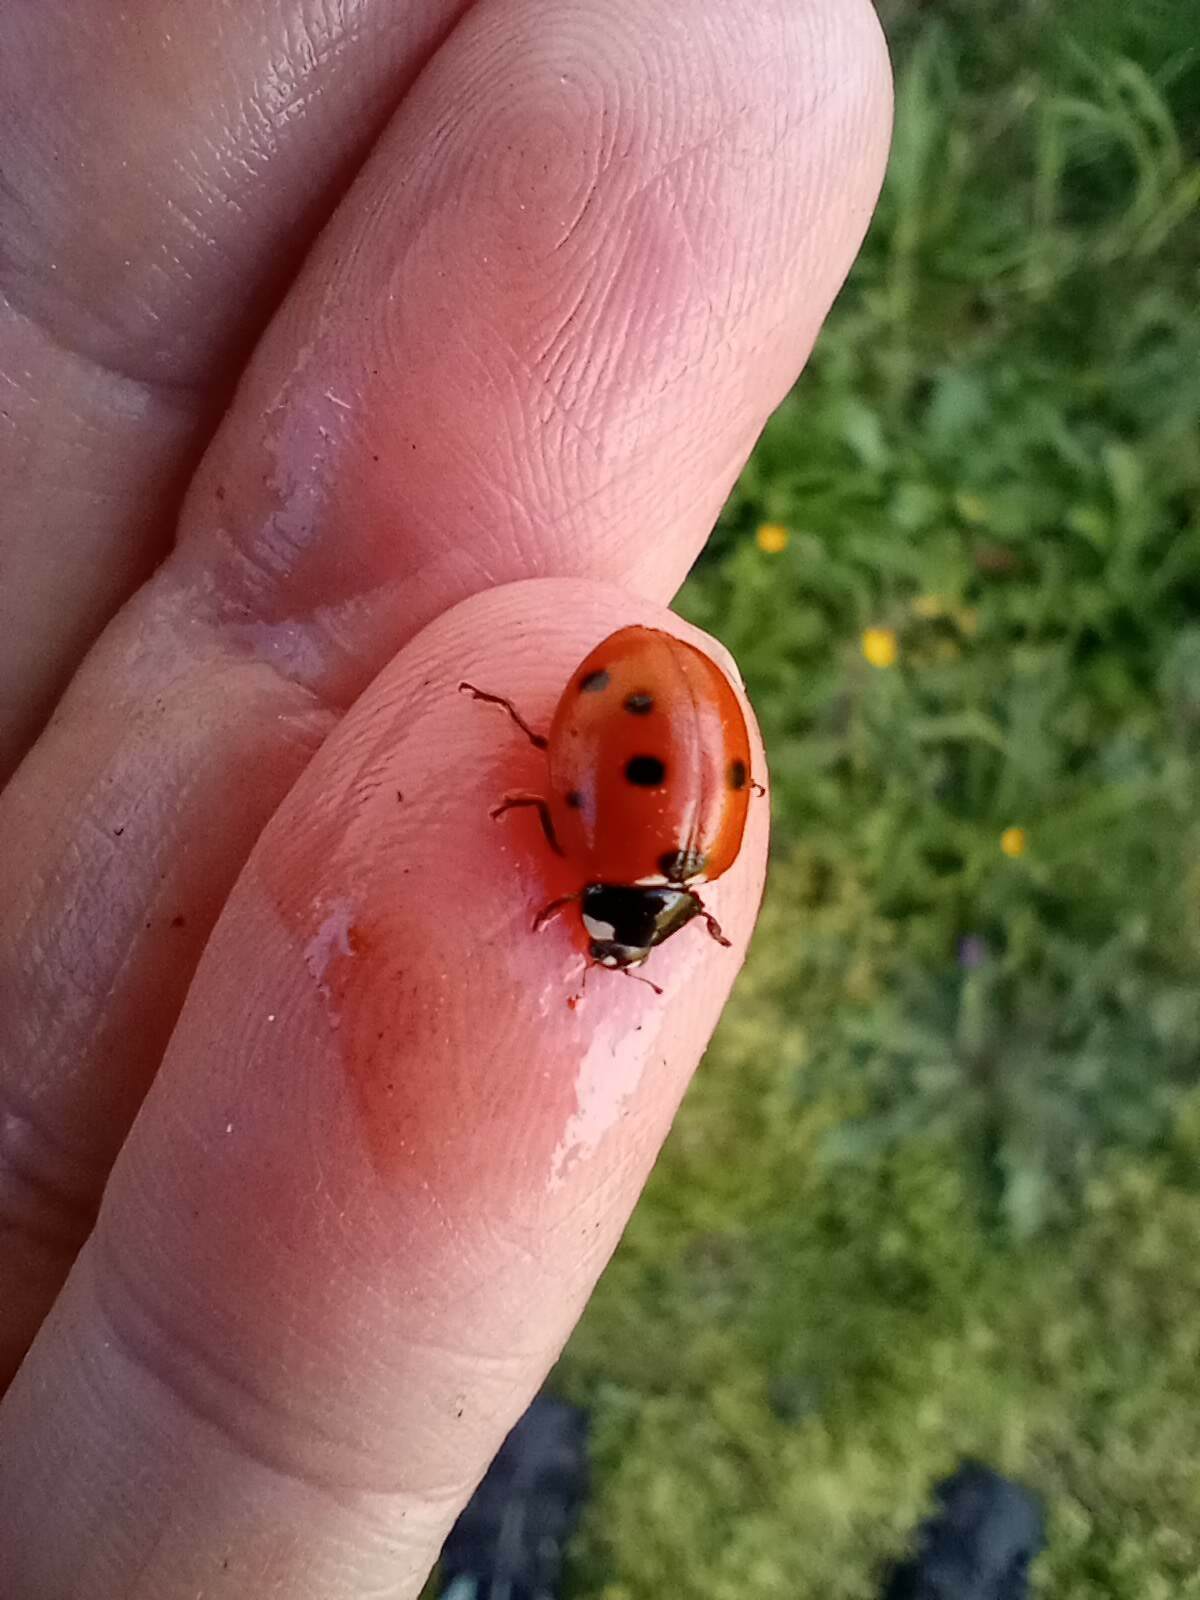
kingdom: Animalia
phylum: Arthropoda
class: Insecta
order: Coleoptera
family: Coccinellidae
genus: Coccinella
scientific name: Coccinella septempunctata
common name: Sevenspotted lady beetle
